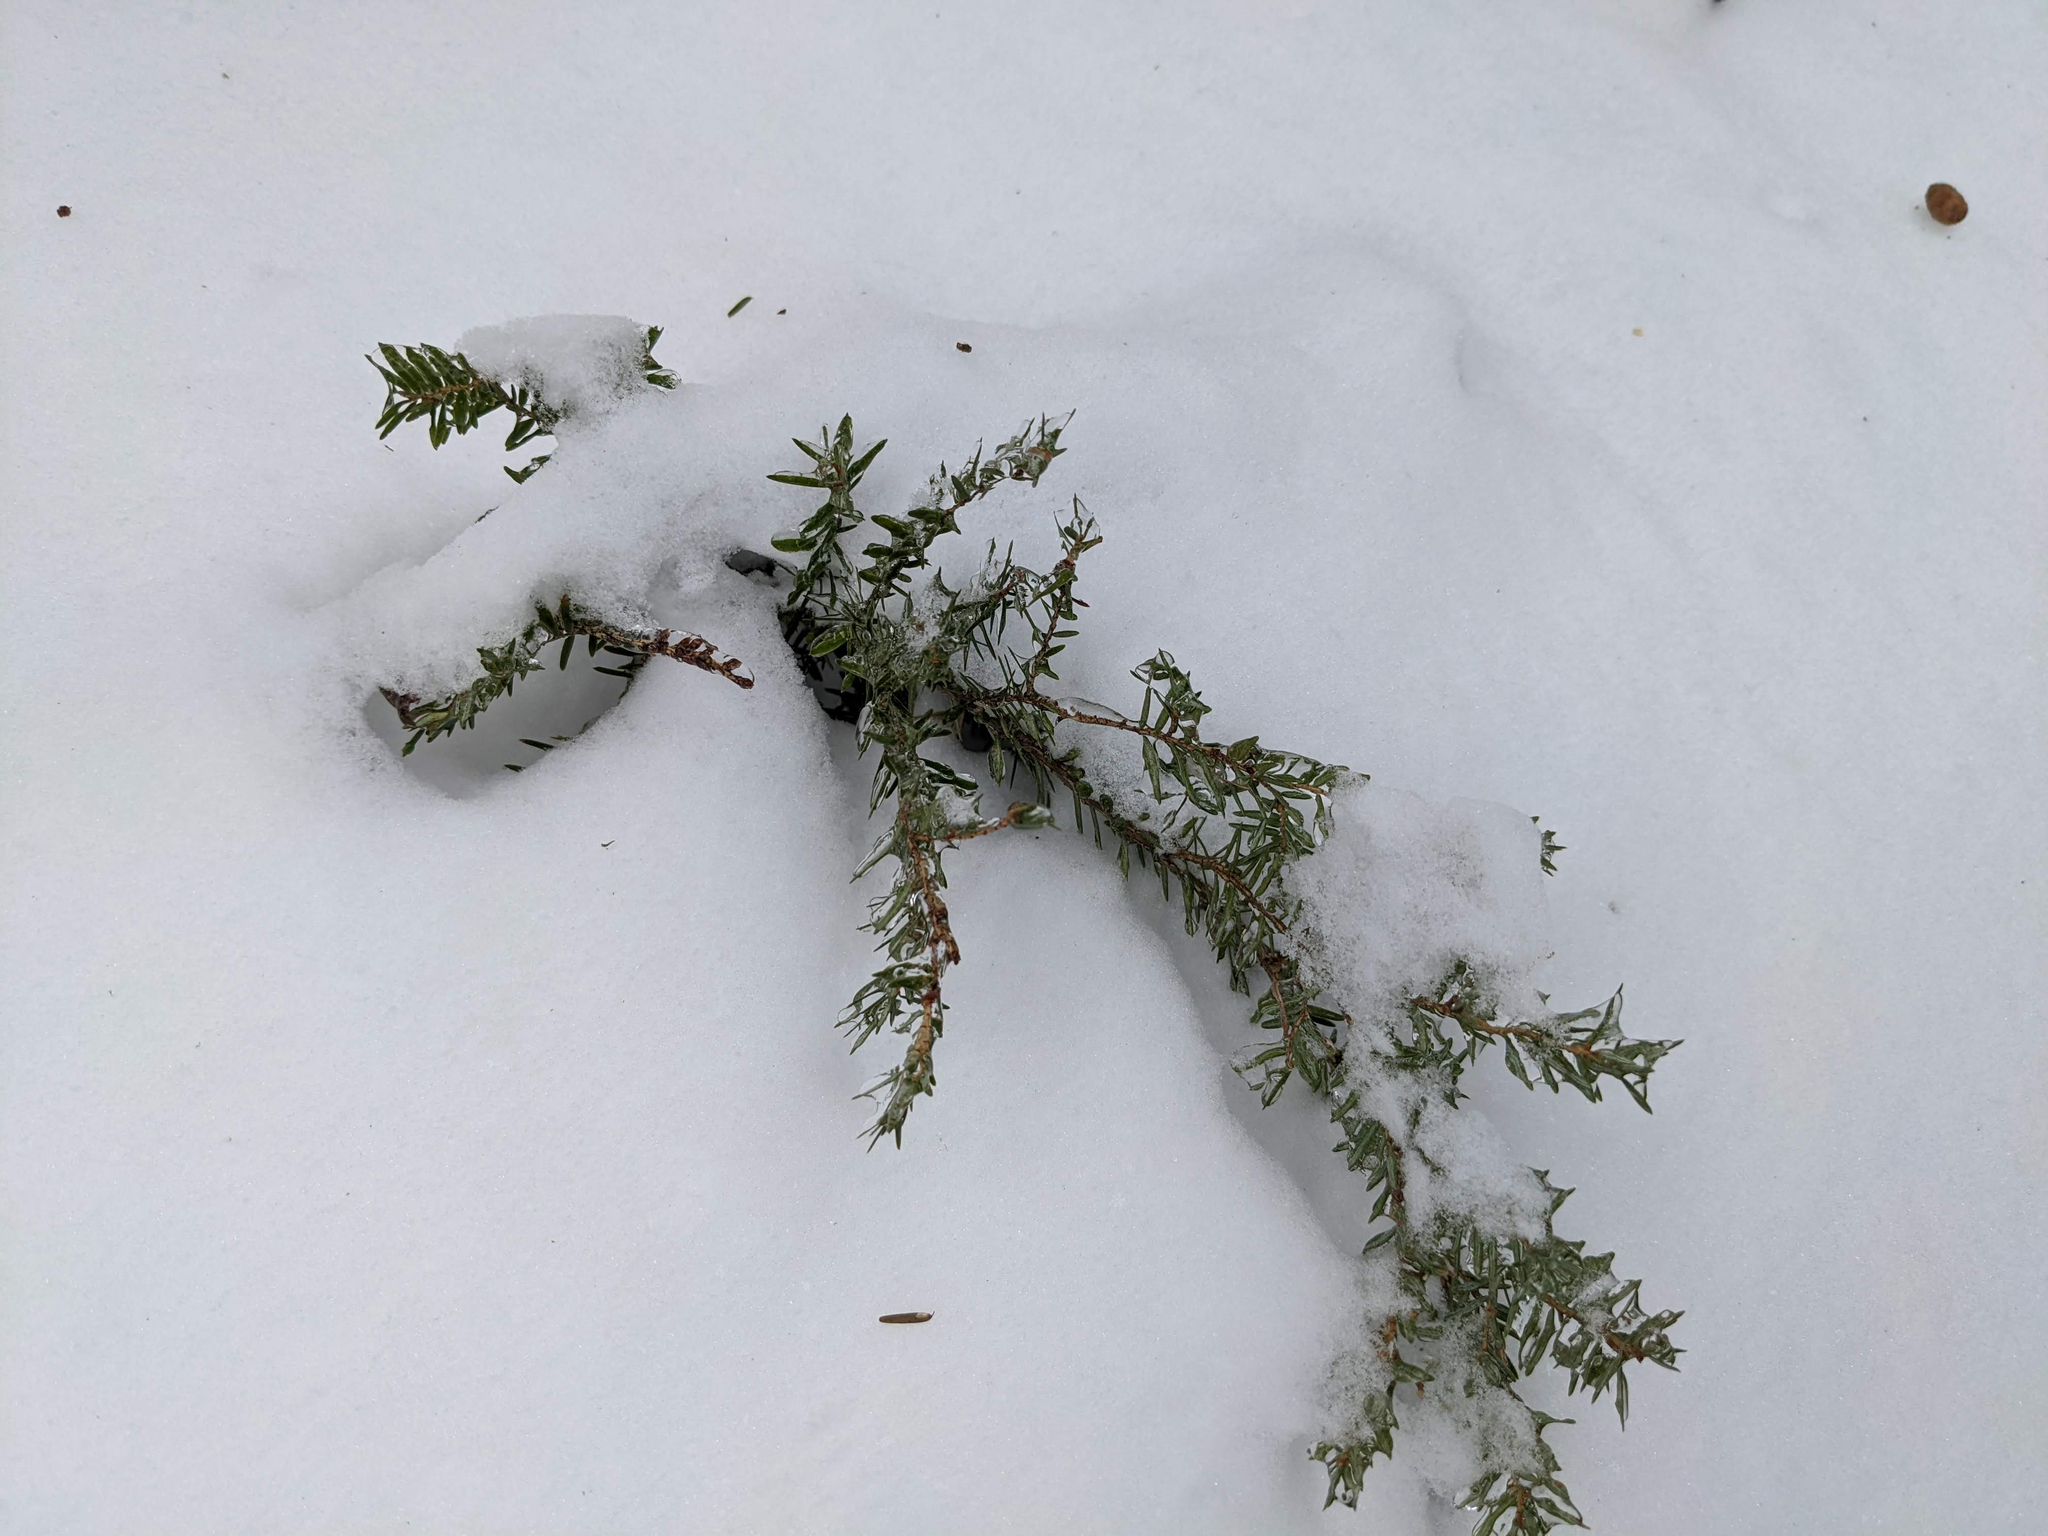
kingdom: Plantae
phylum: Tracheophyta
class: Pinopsida
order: Pinales
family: Pinaceae
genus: Tsuga
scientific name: Tsuga canadensis
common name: Eastern hemlock
